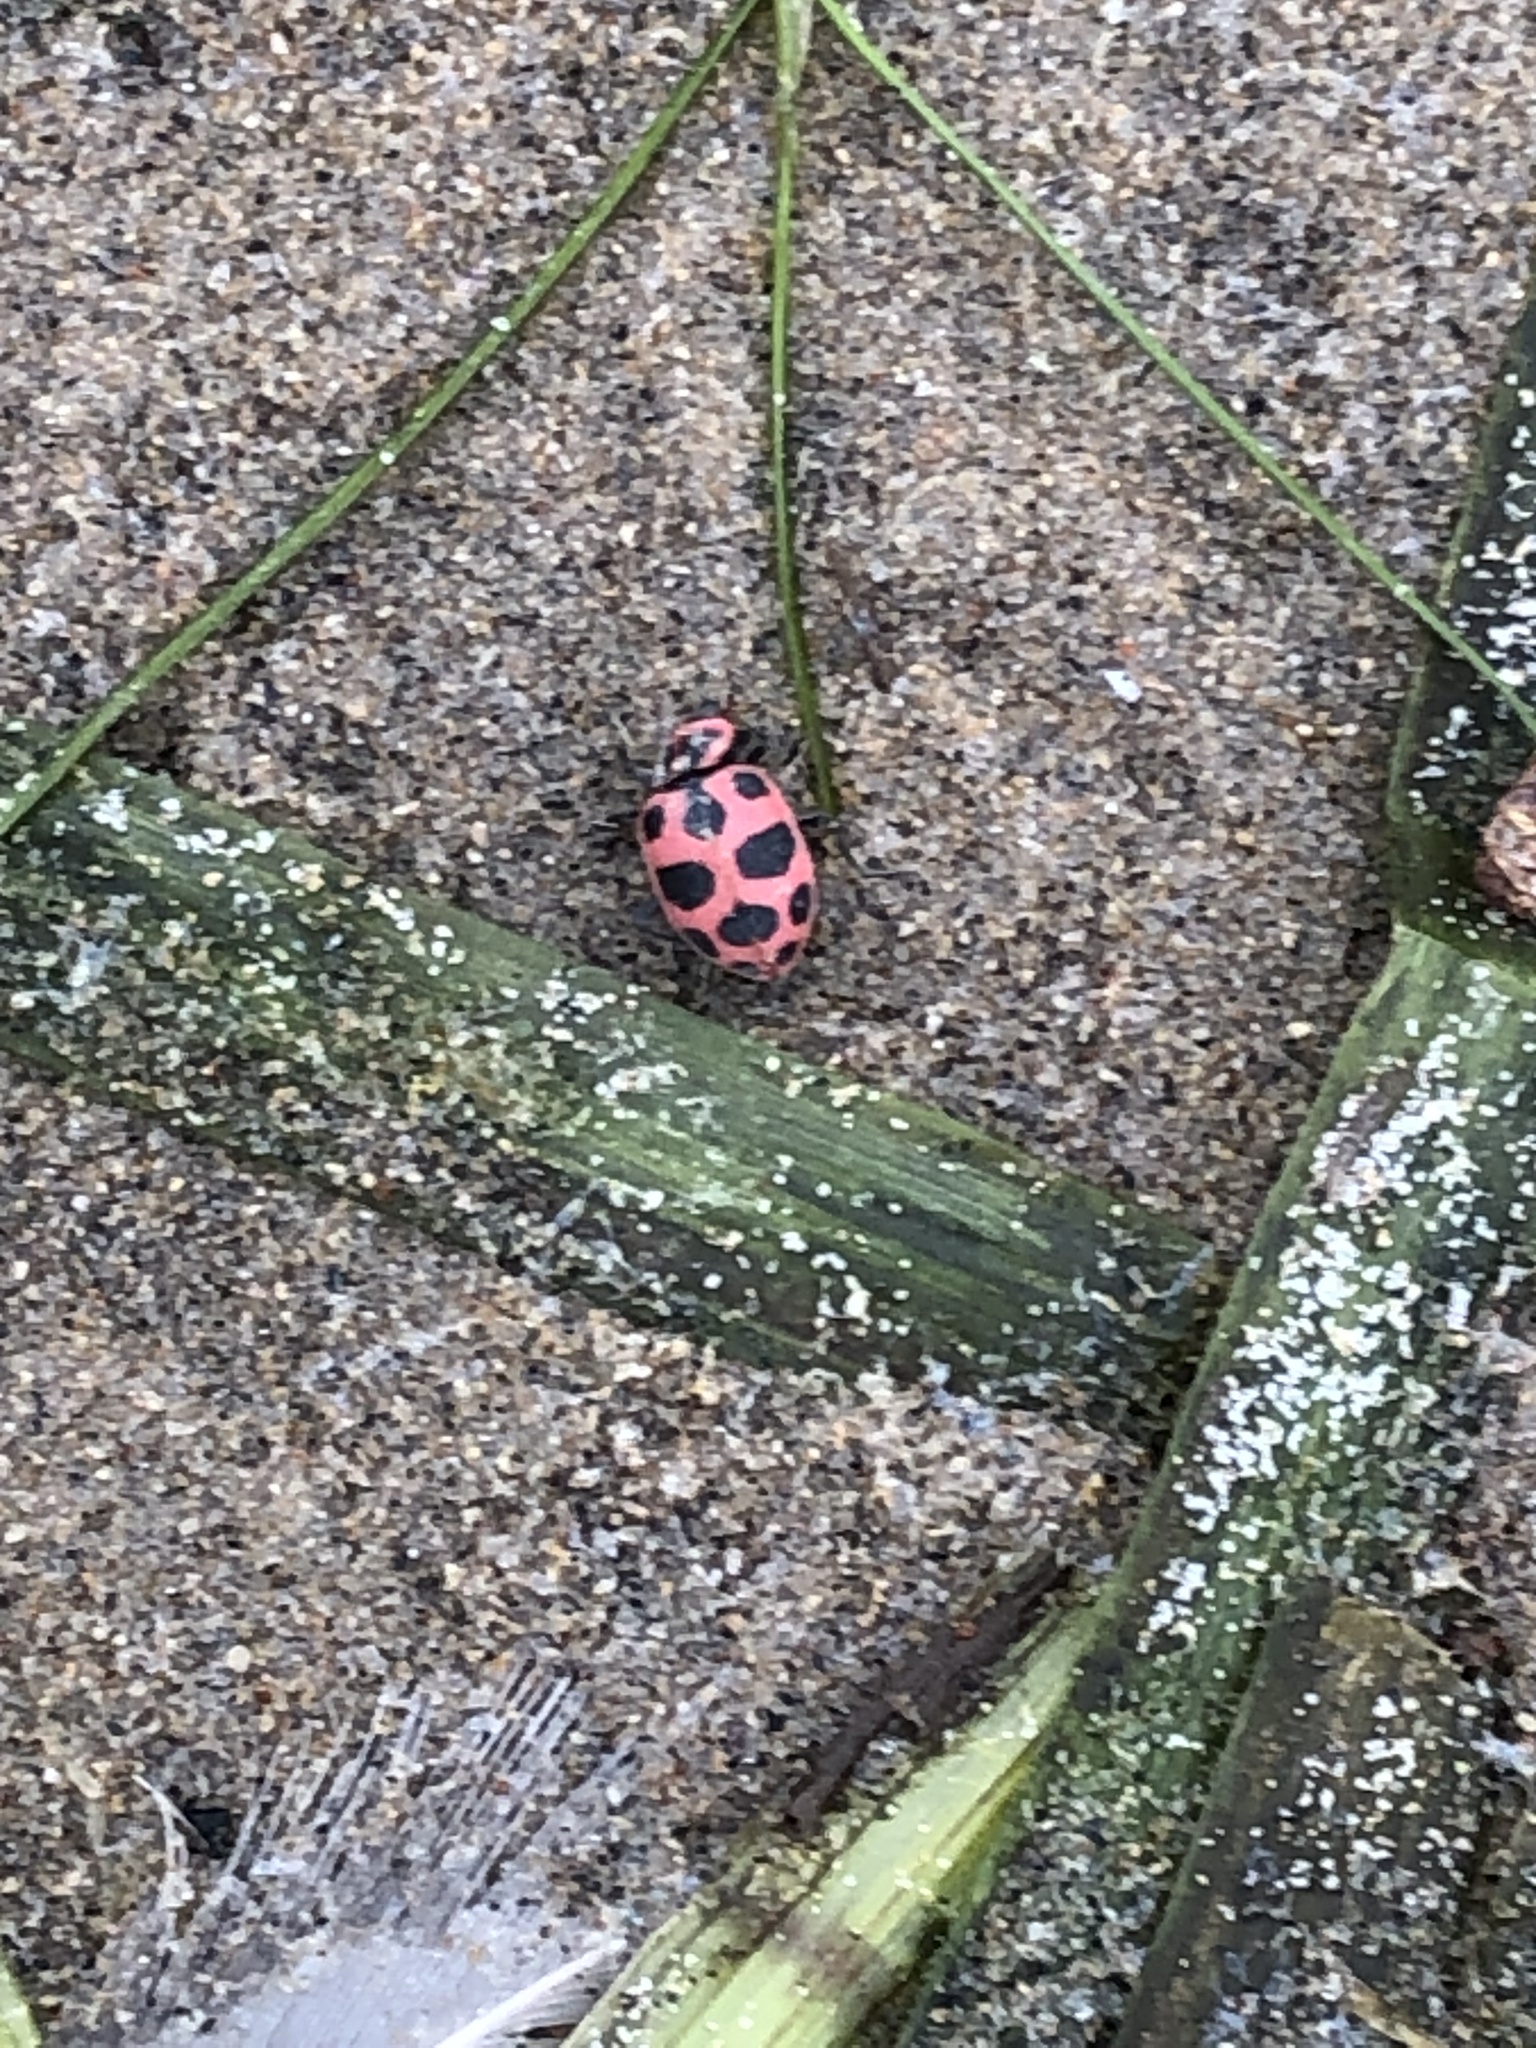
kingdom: Animalia
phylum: Arthropoda
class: Insecta
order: Coleoptera
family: Coccinellidae
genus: Coleomegilla
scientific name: Coleomegilla maculata
